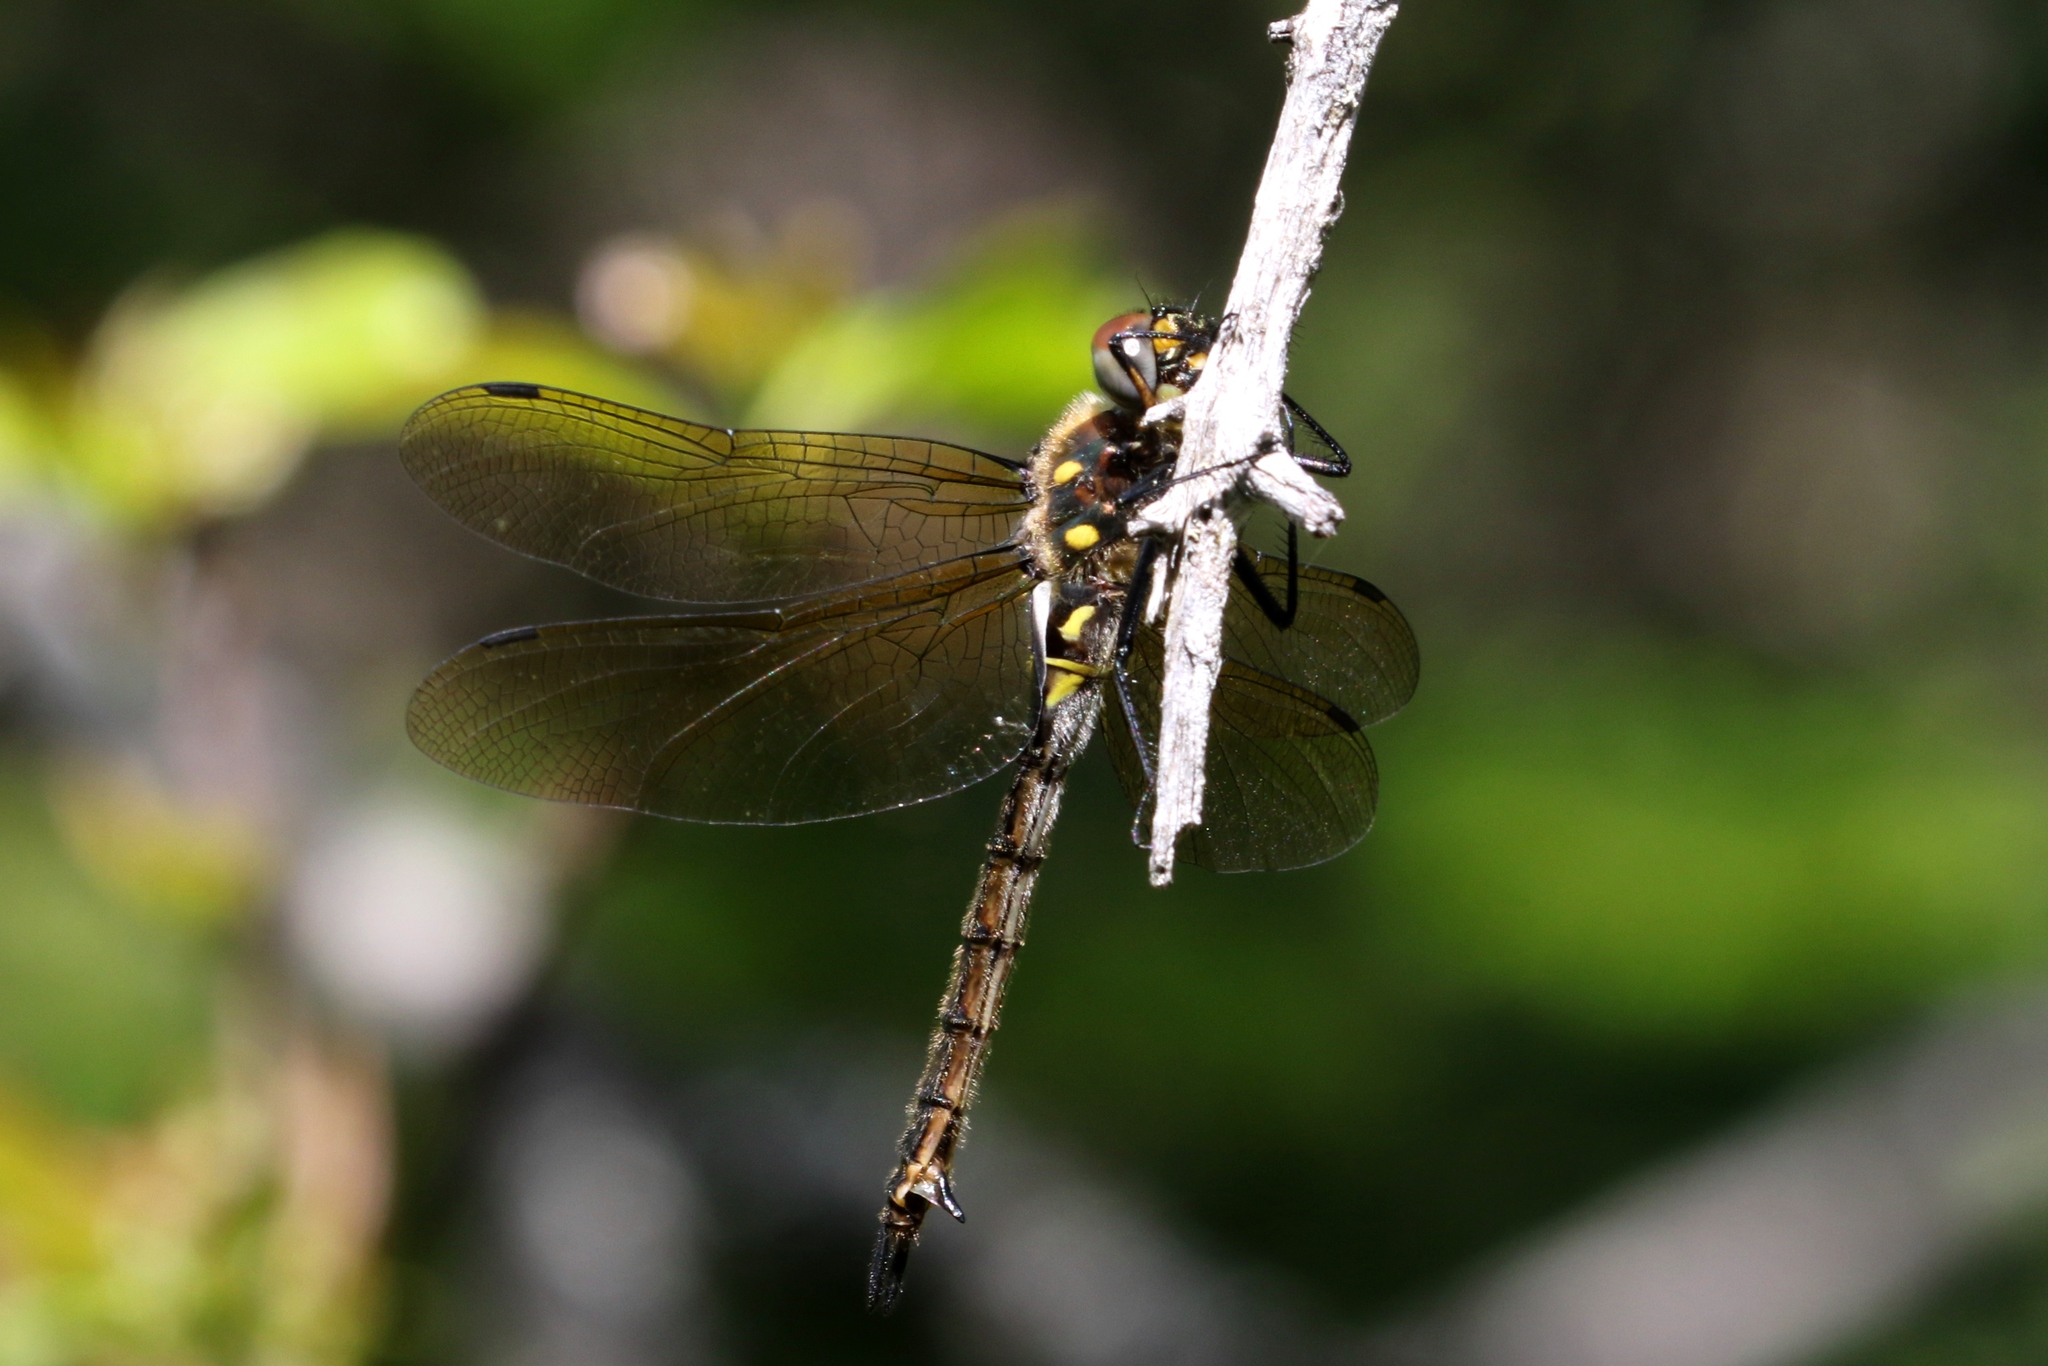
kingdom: Animalia
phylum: Arthropoda
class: Insecta
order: Odonata
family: Corduliidae
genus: Somatochlora
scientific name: Somatochlora minor
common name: Ocellated emerald
